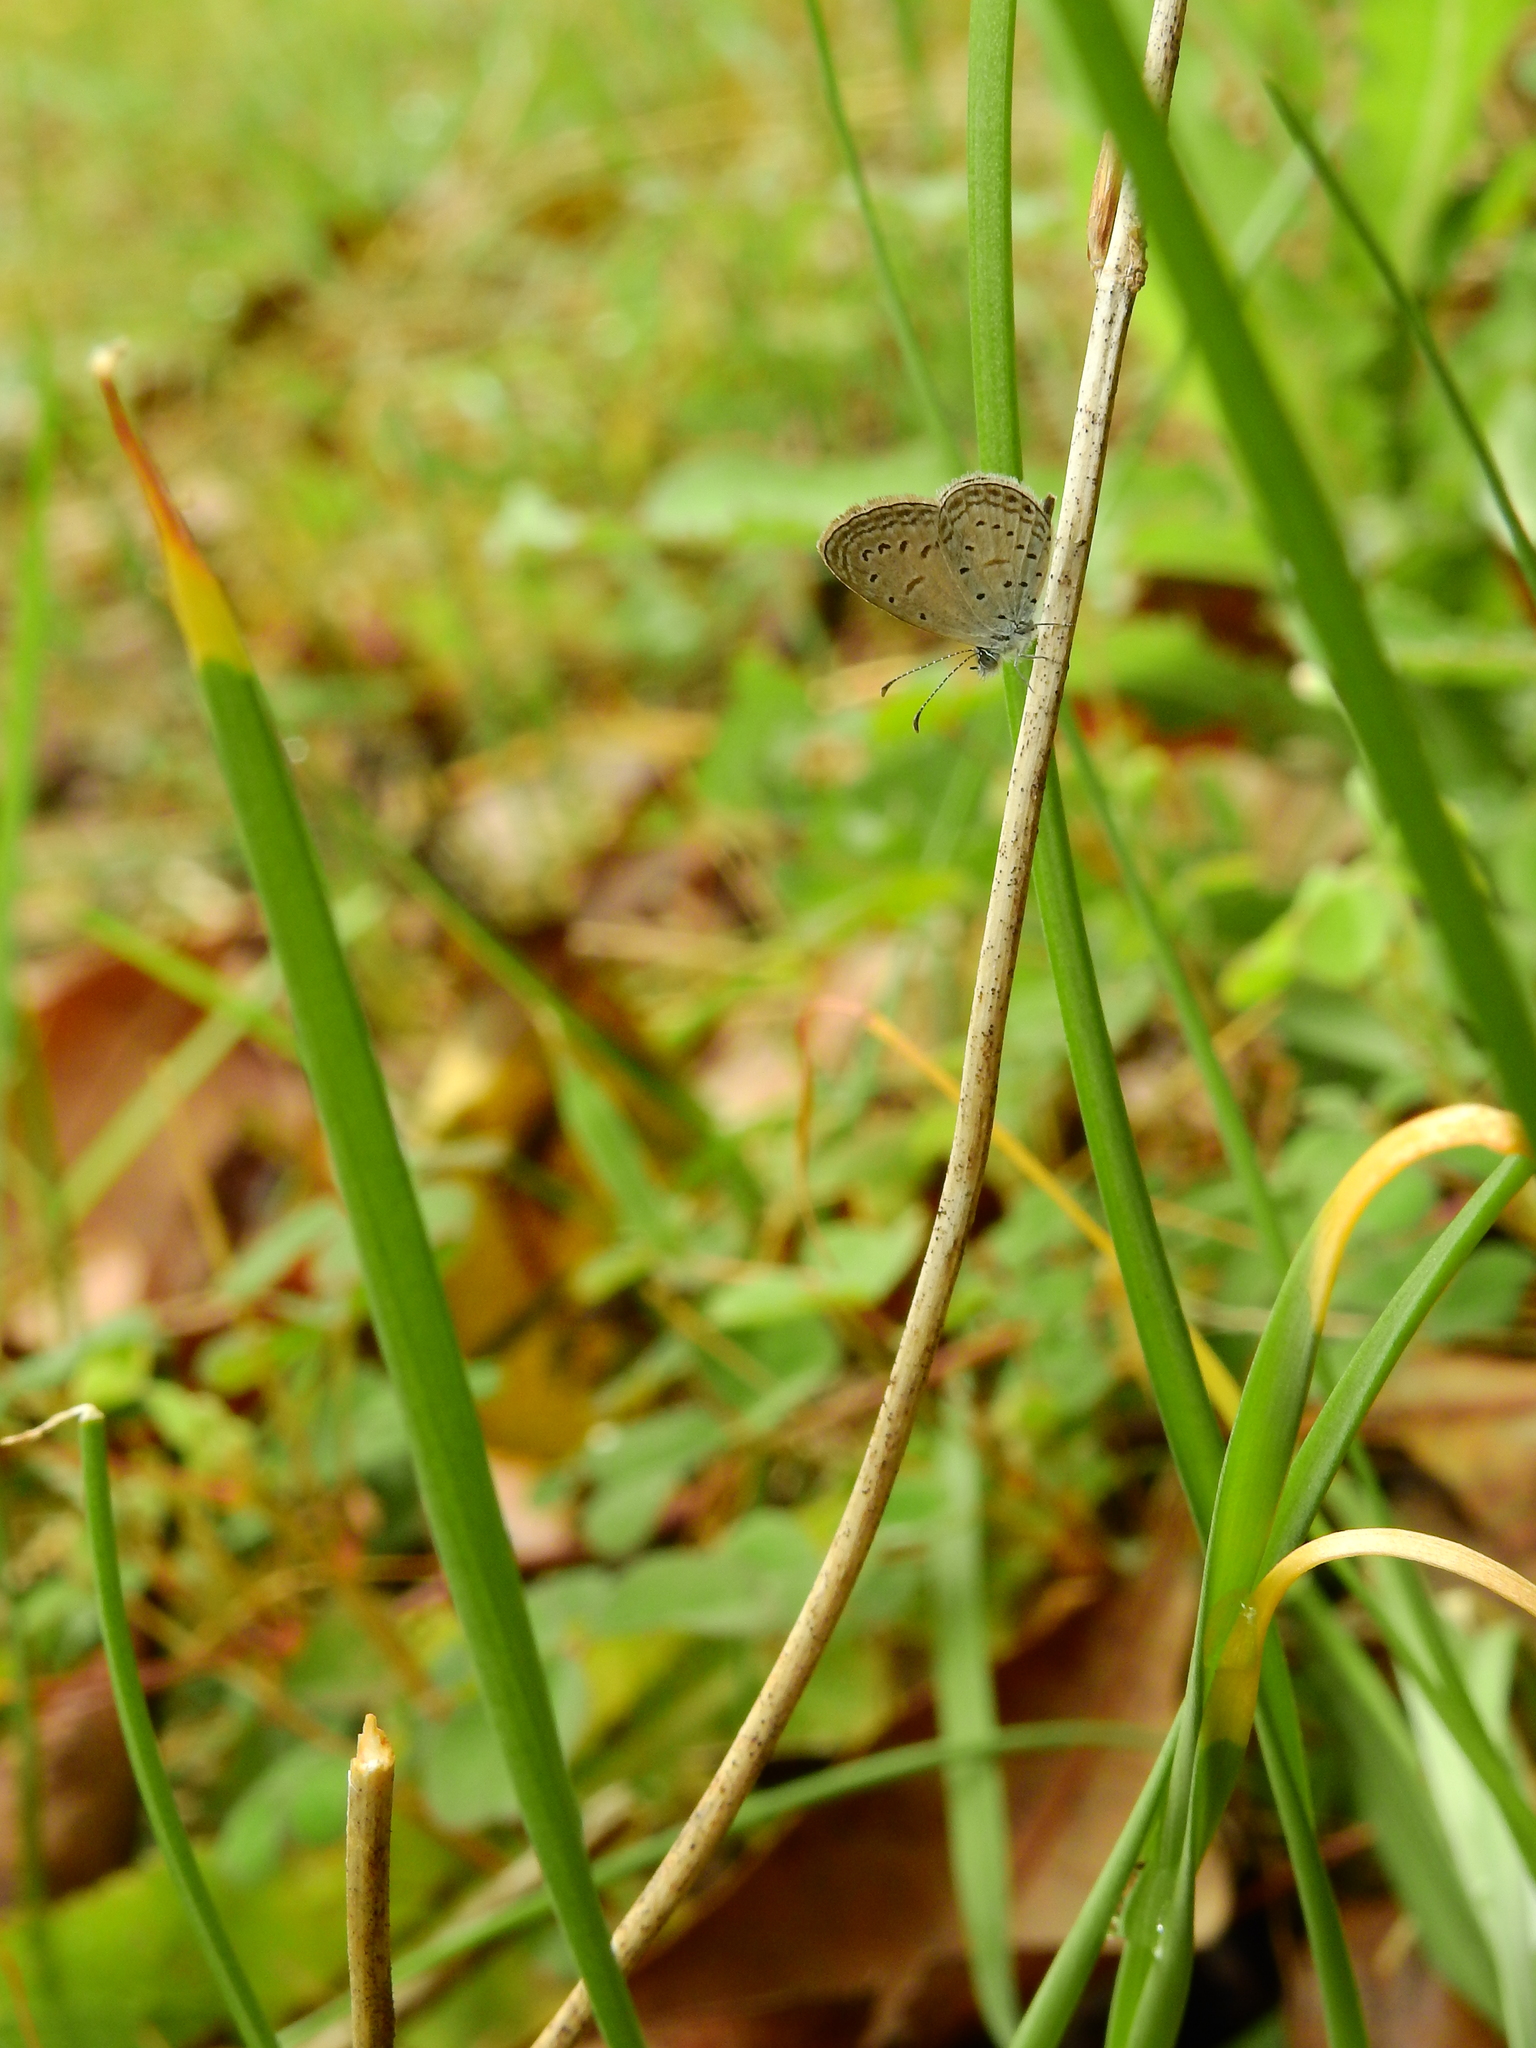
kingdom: Animalia
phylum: Arthropoda
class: Insecta
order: Lepidoptera
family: Lycaenidae
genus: Zizula
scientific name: Zizula hylax
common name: Gaika blue
